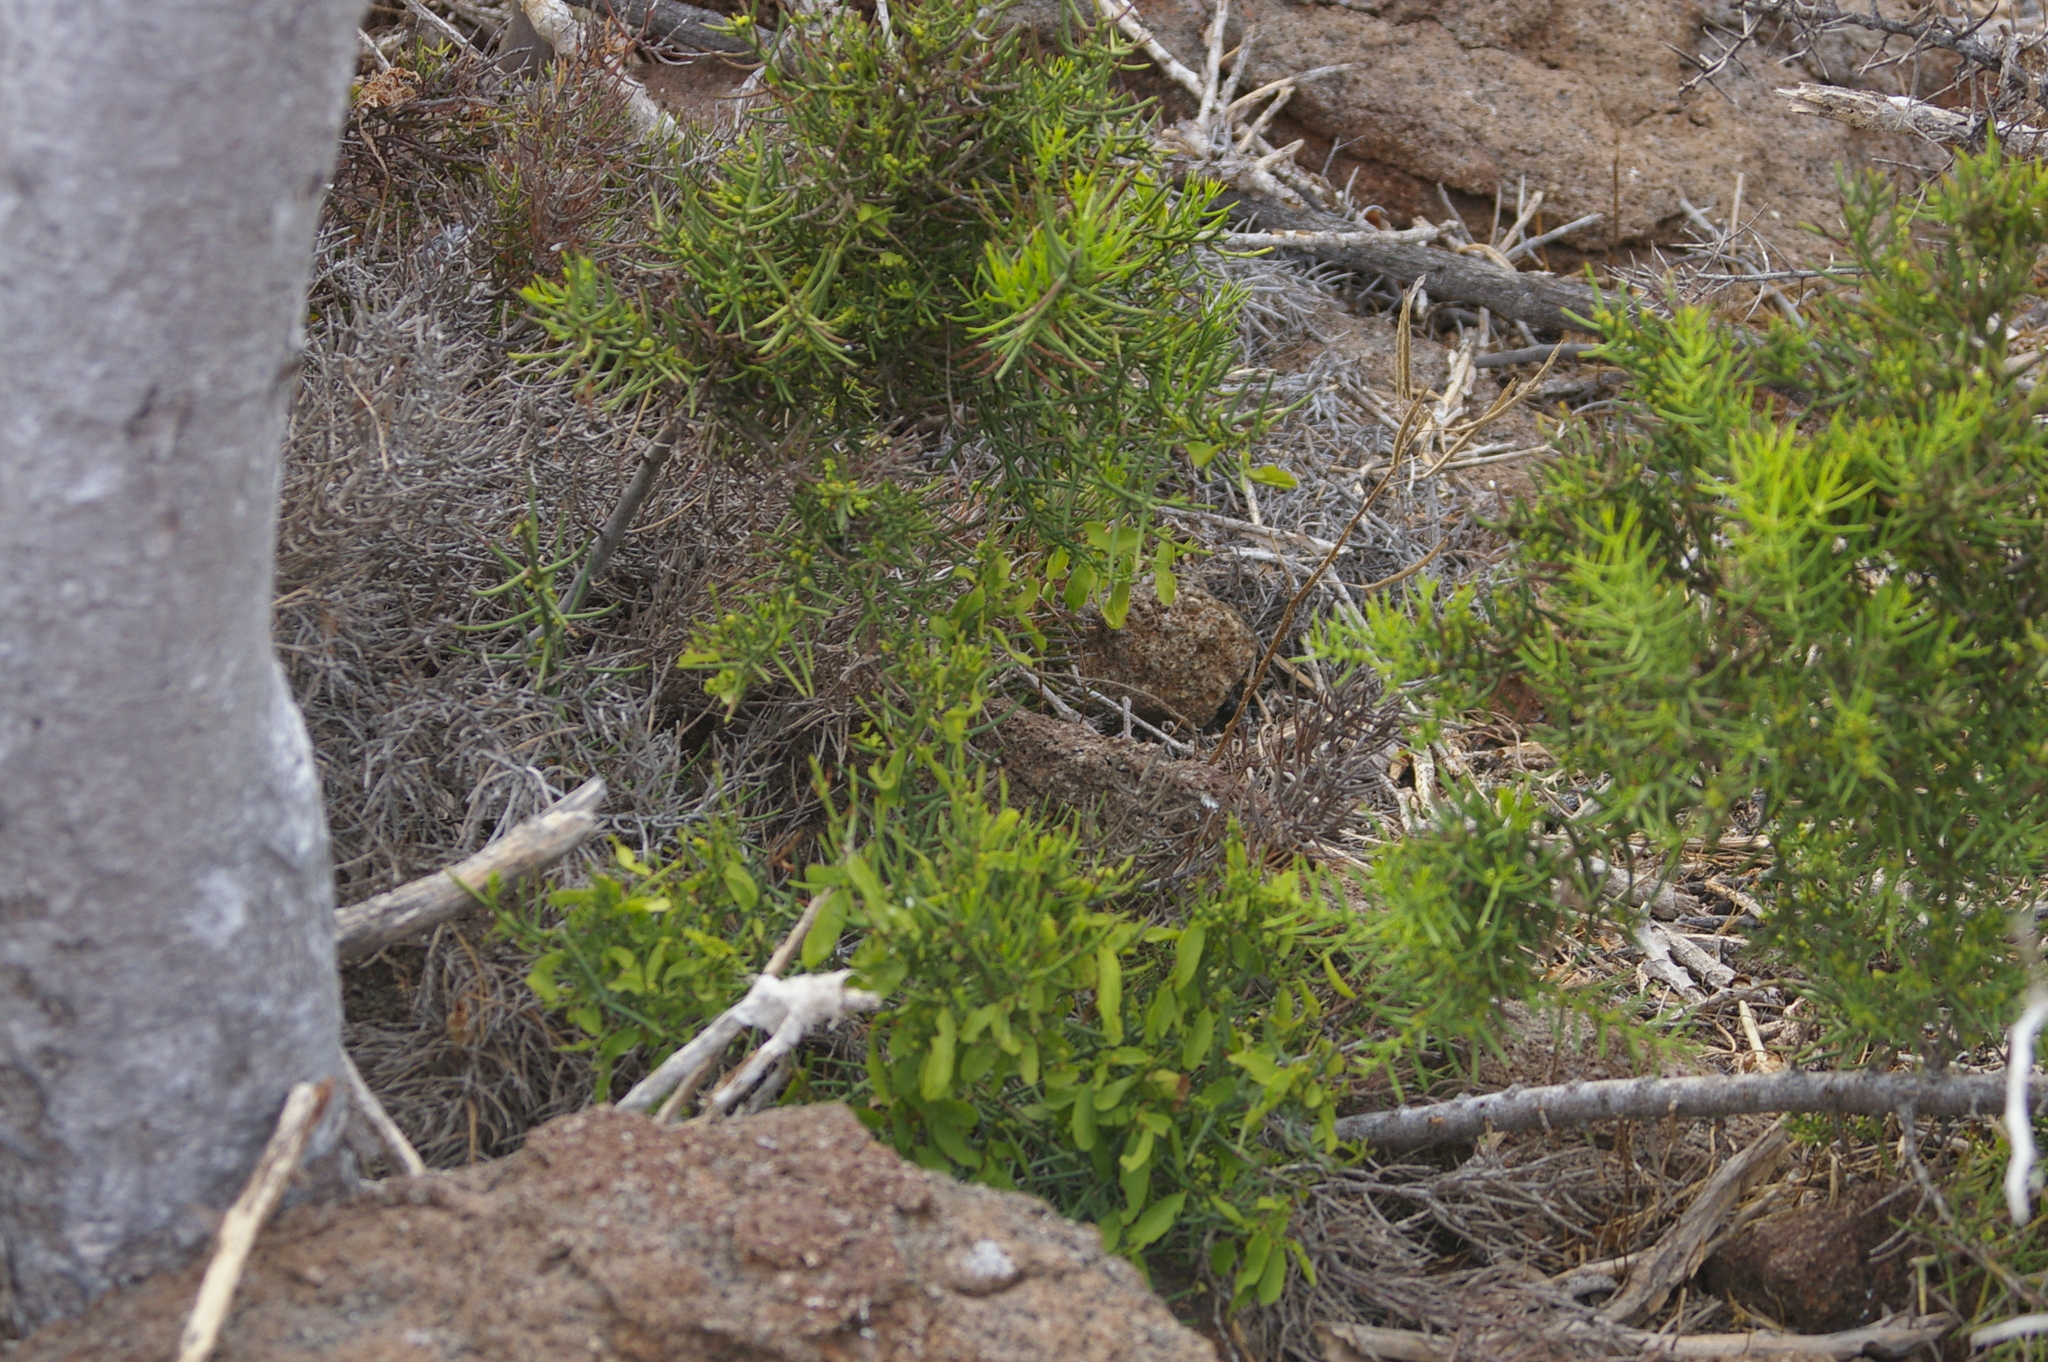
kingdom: Plantae
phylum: Tracheophyta
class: Magnoliopsida
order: Rosales
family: Rhamnaceae
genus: Scutia
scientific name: Scutia spicata
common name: Spiny bush
